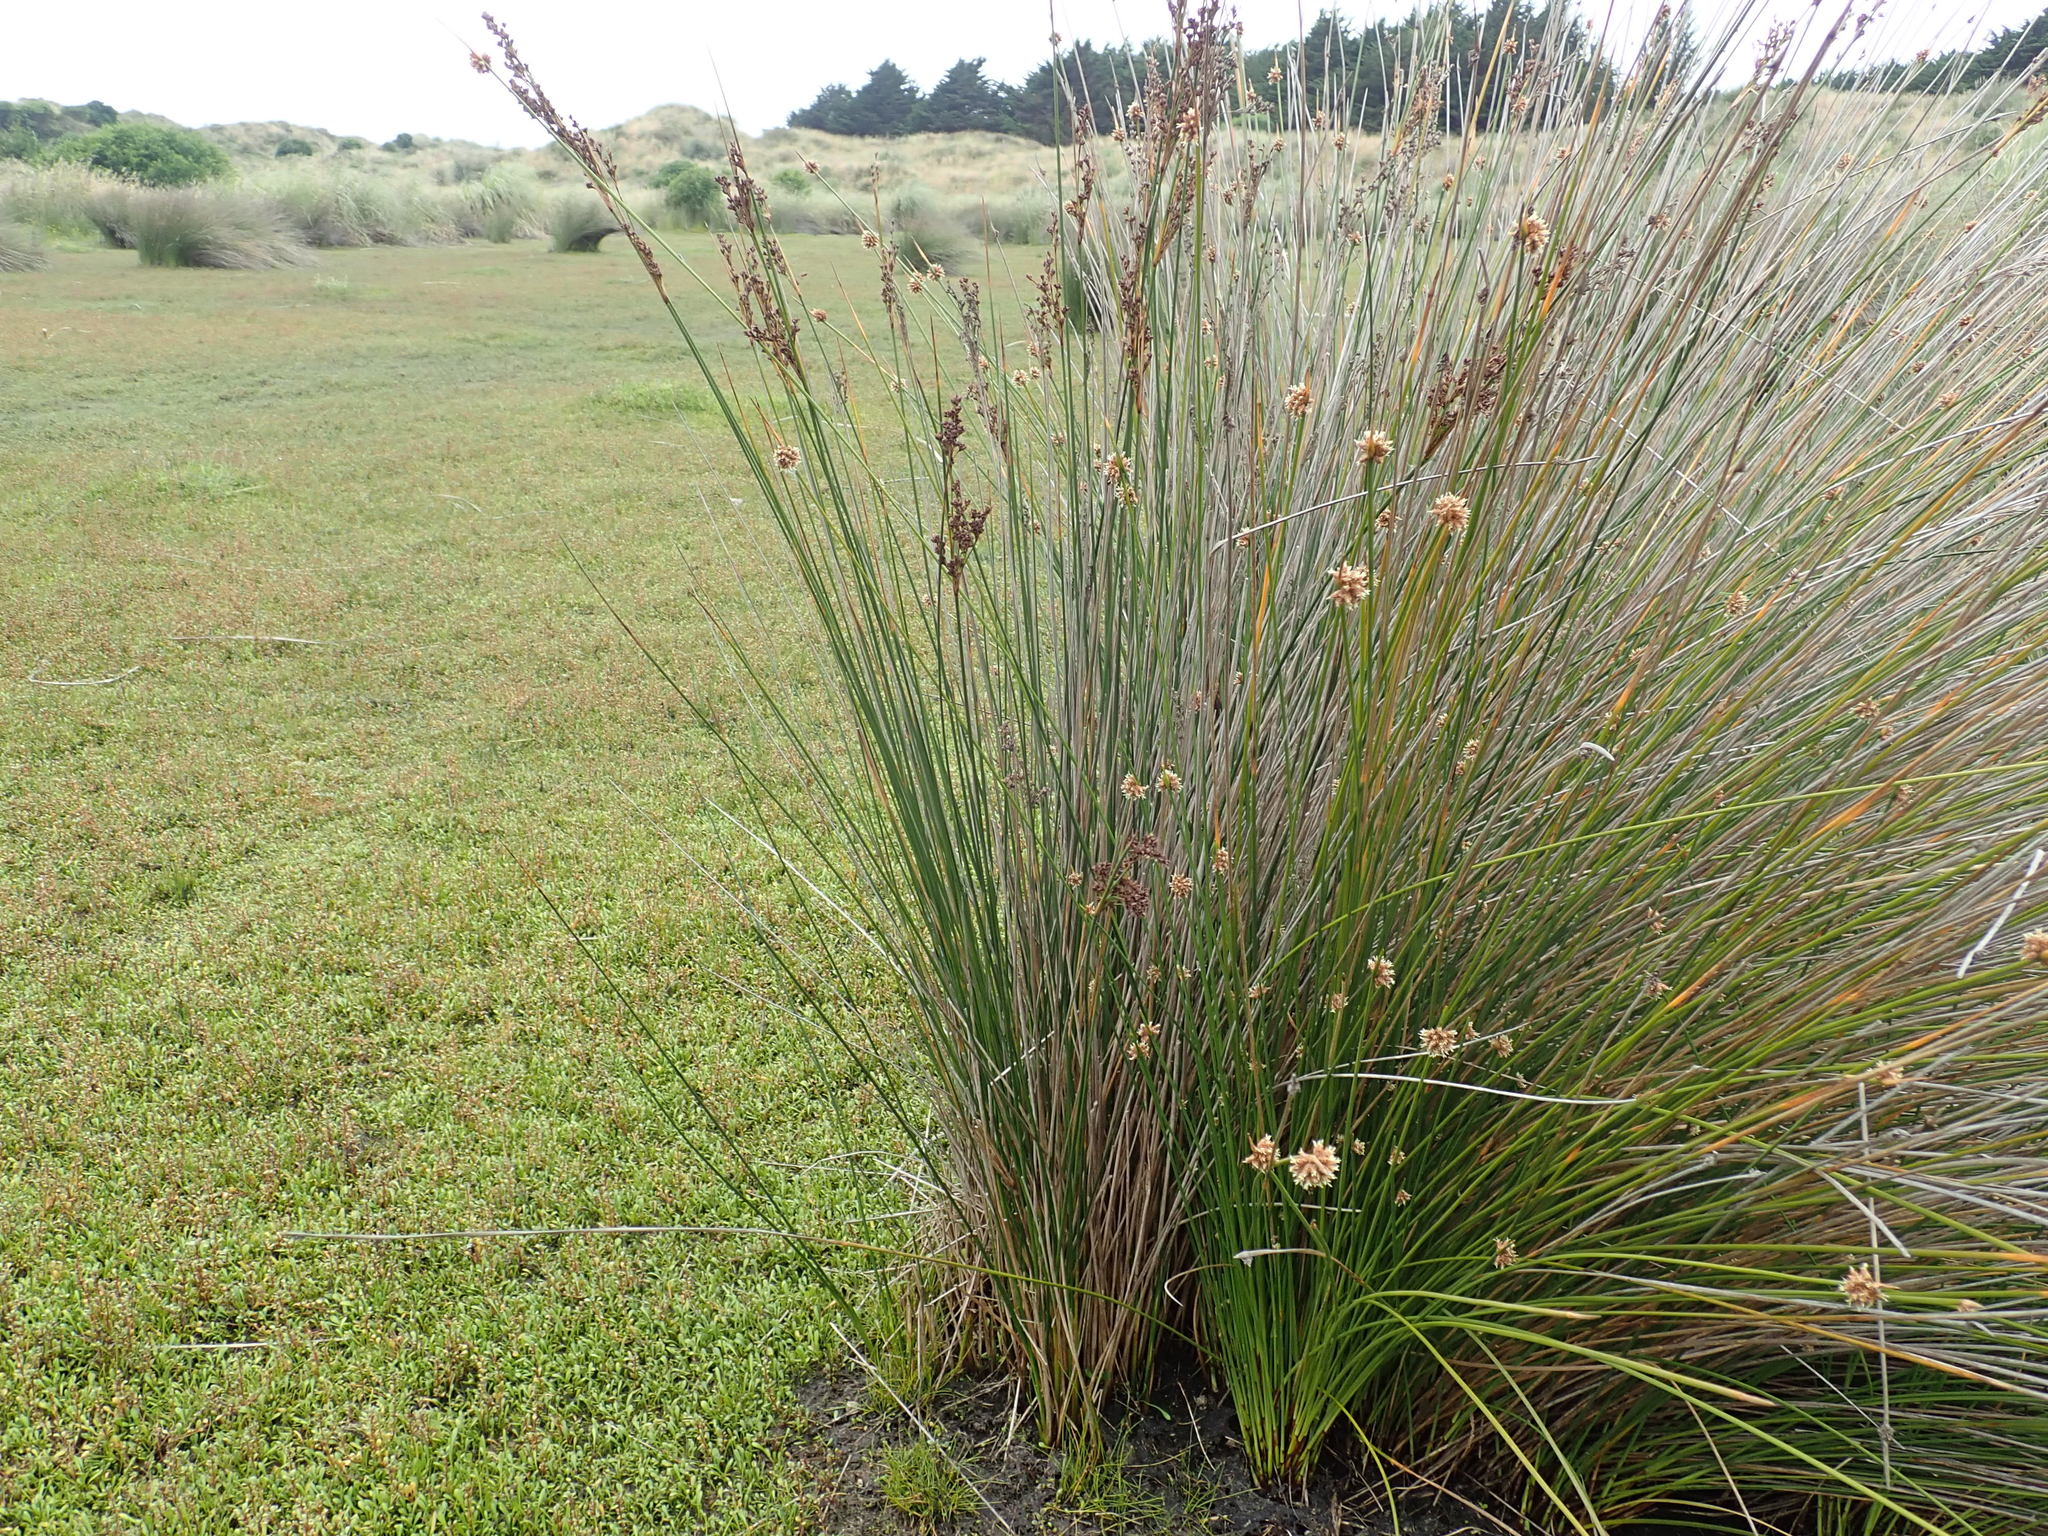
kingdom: Plantae
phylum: Tracheophyta
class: Liliopsida
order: Poales
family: Juncaceae
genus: Juncus
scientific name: Juncus kraussii
